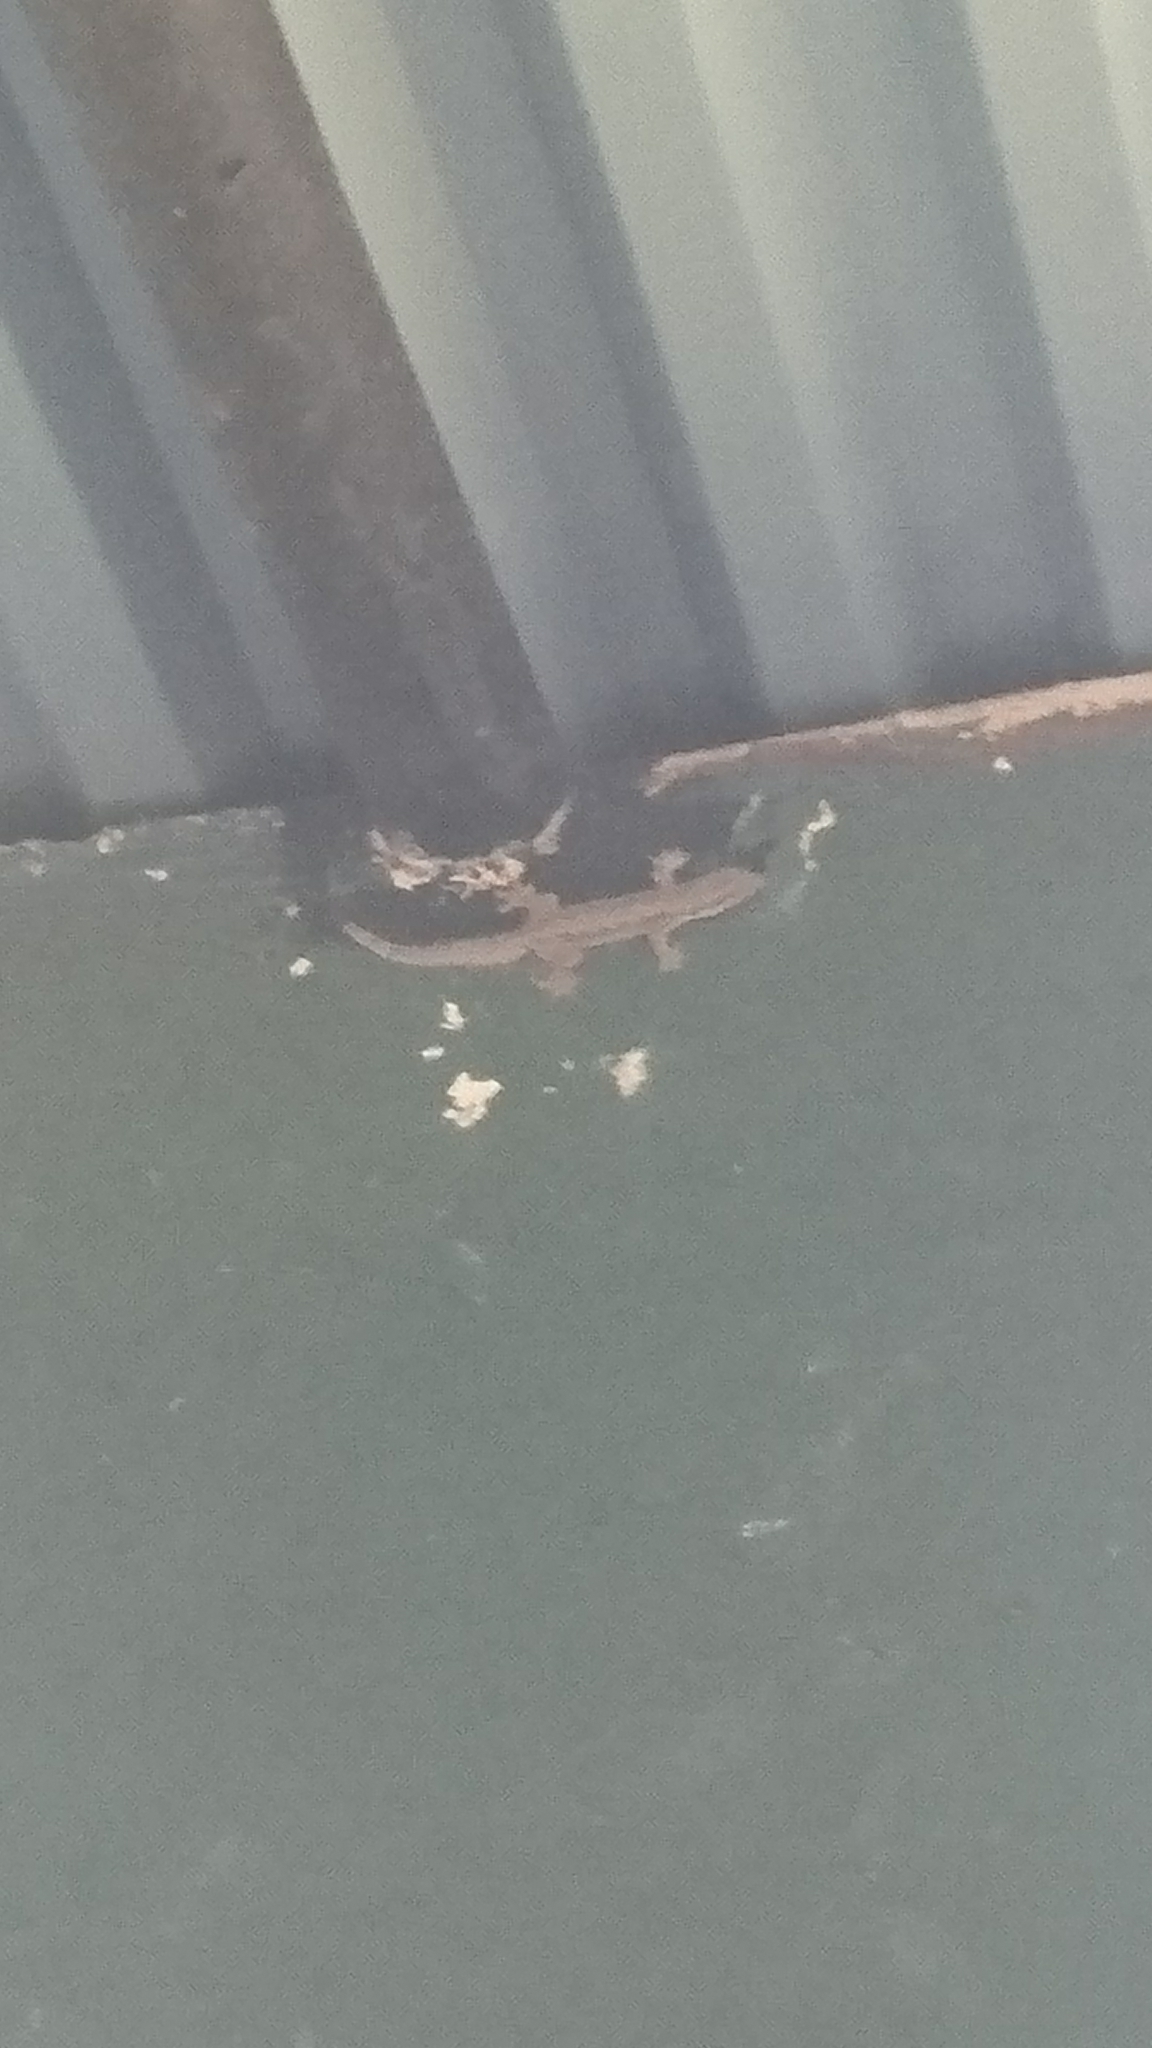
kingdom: Animalia
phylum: Chordata
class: Squamata
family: Gekkonidae
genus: Hemidactylus
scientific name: Hemidactylus platyurus
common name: Flat-tailed house gecko
